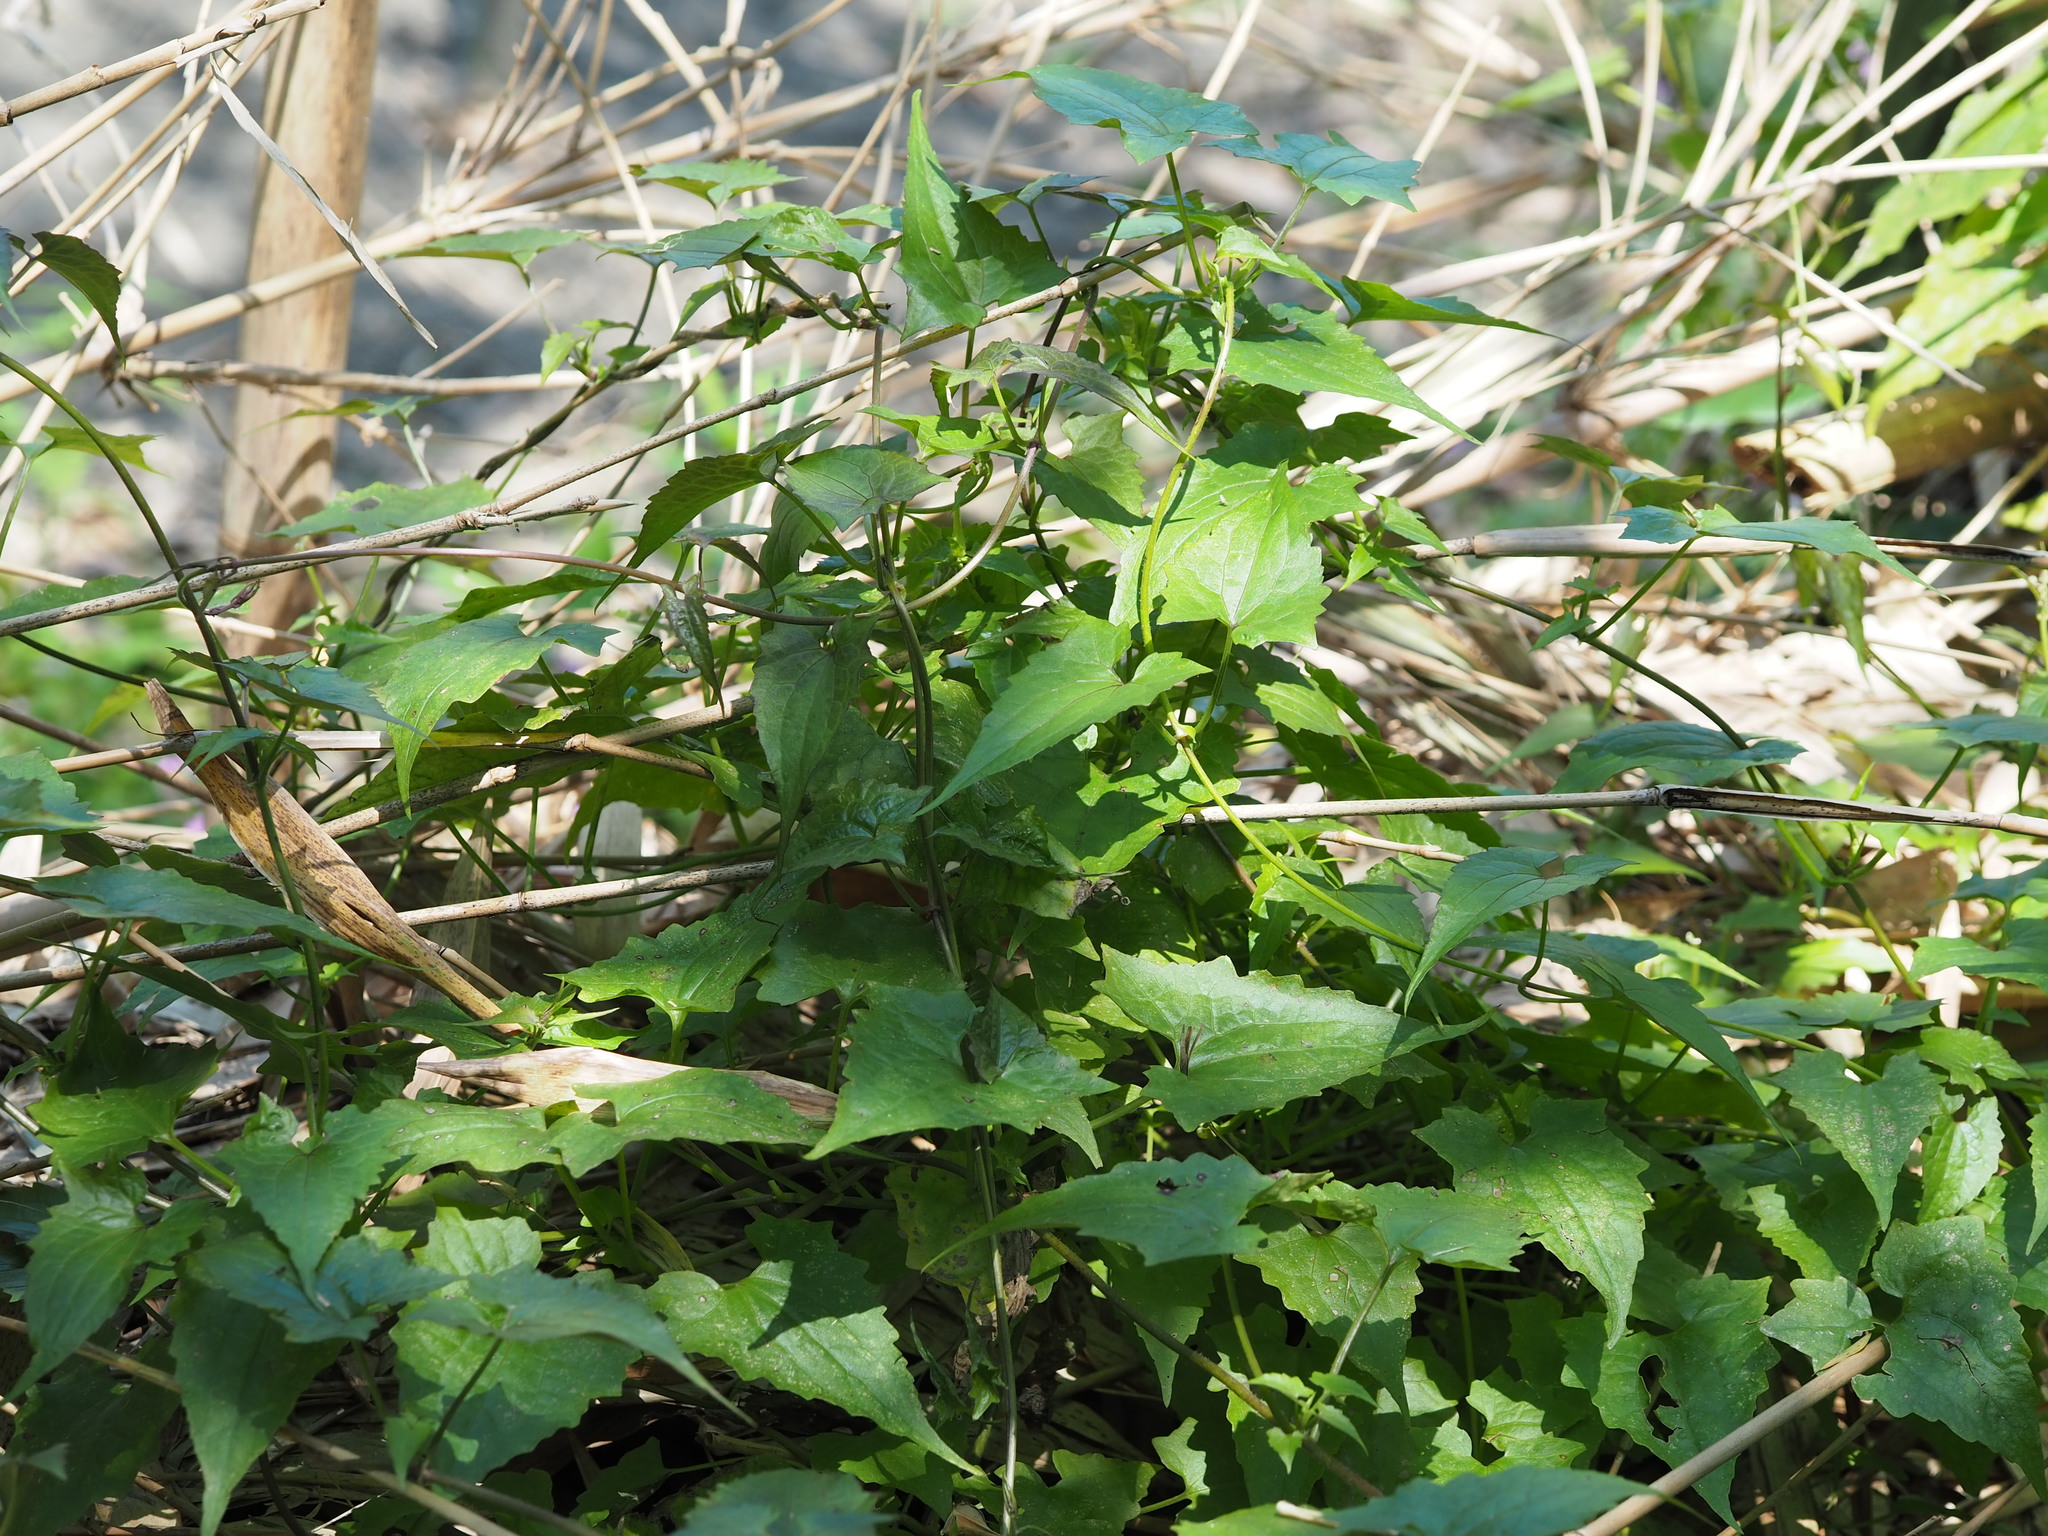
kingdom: Plantae
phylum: Tracheophyta
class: Magnoliopsida
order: Asterales
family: Asteraceae
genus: Mikania
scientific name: Mikania micrantha
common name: Mile-a-minute
